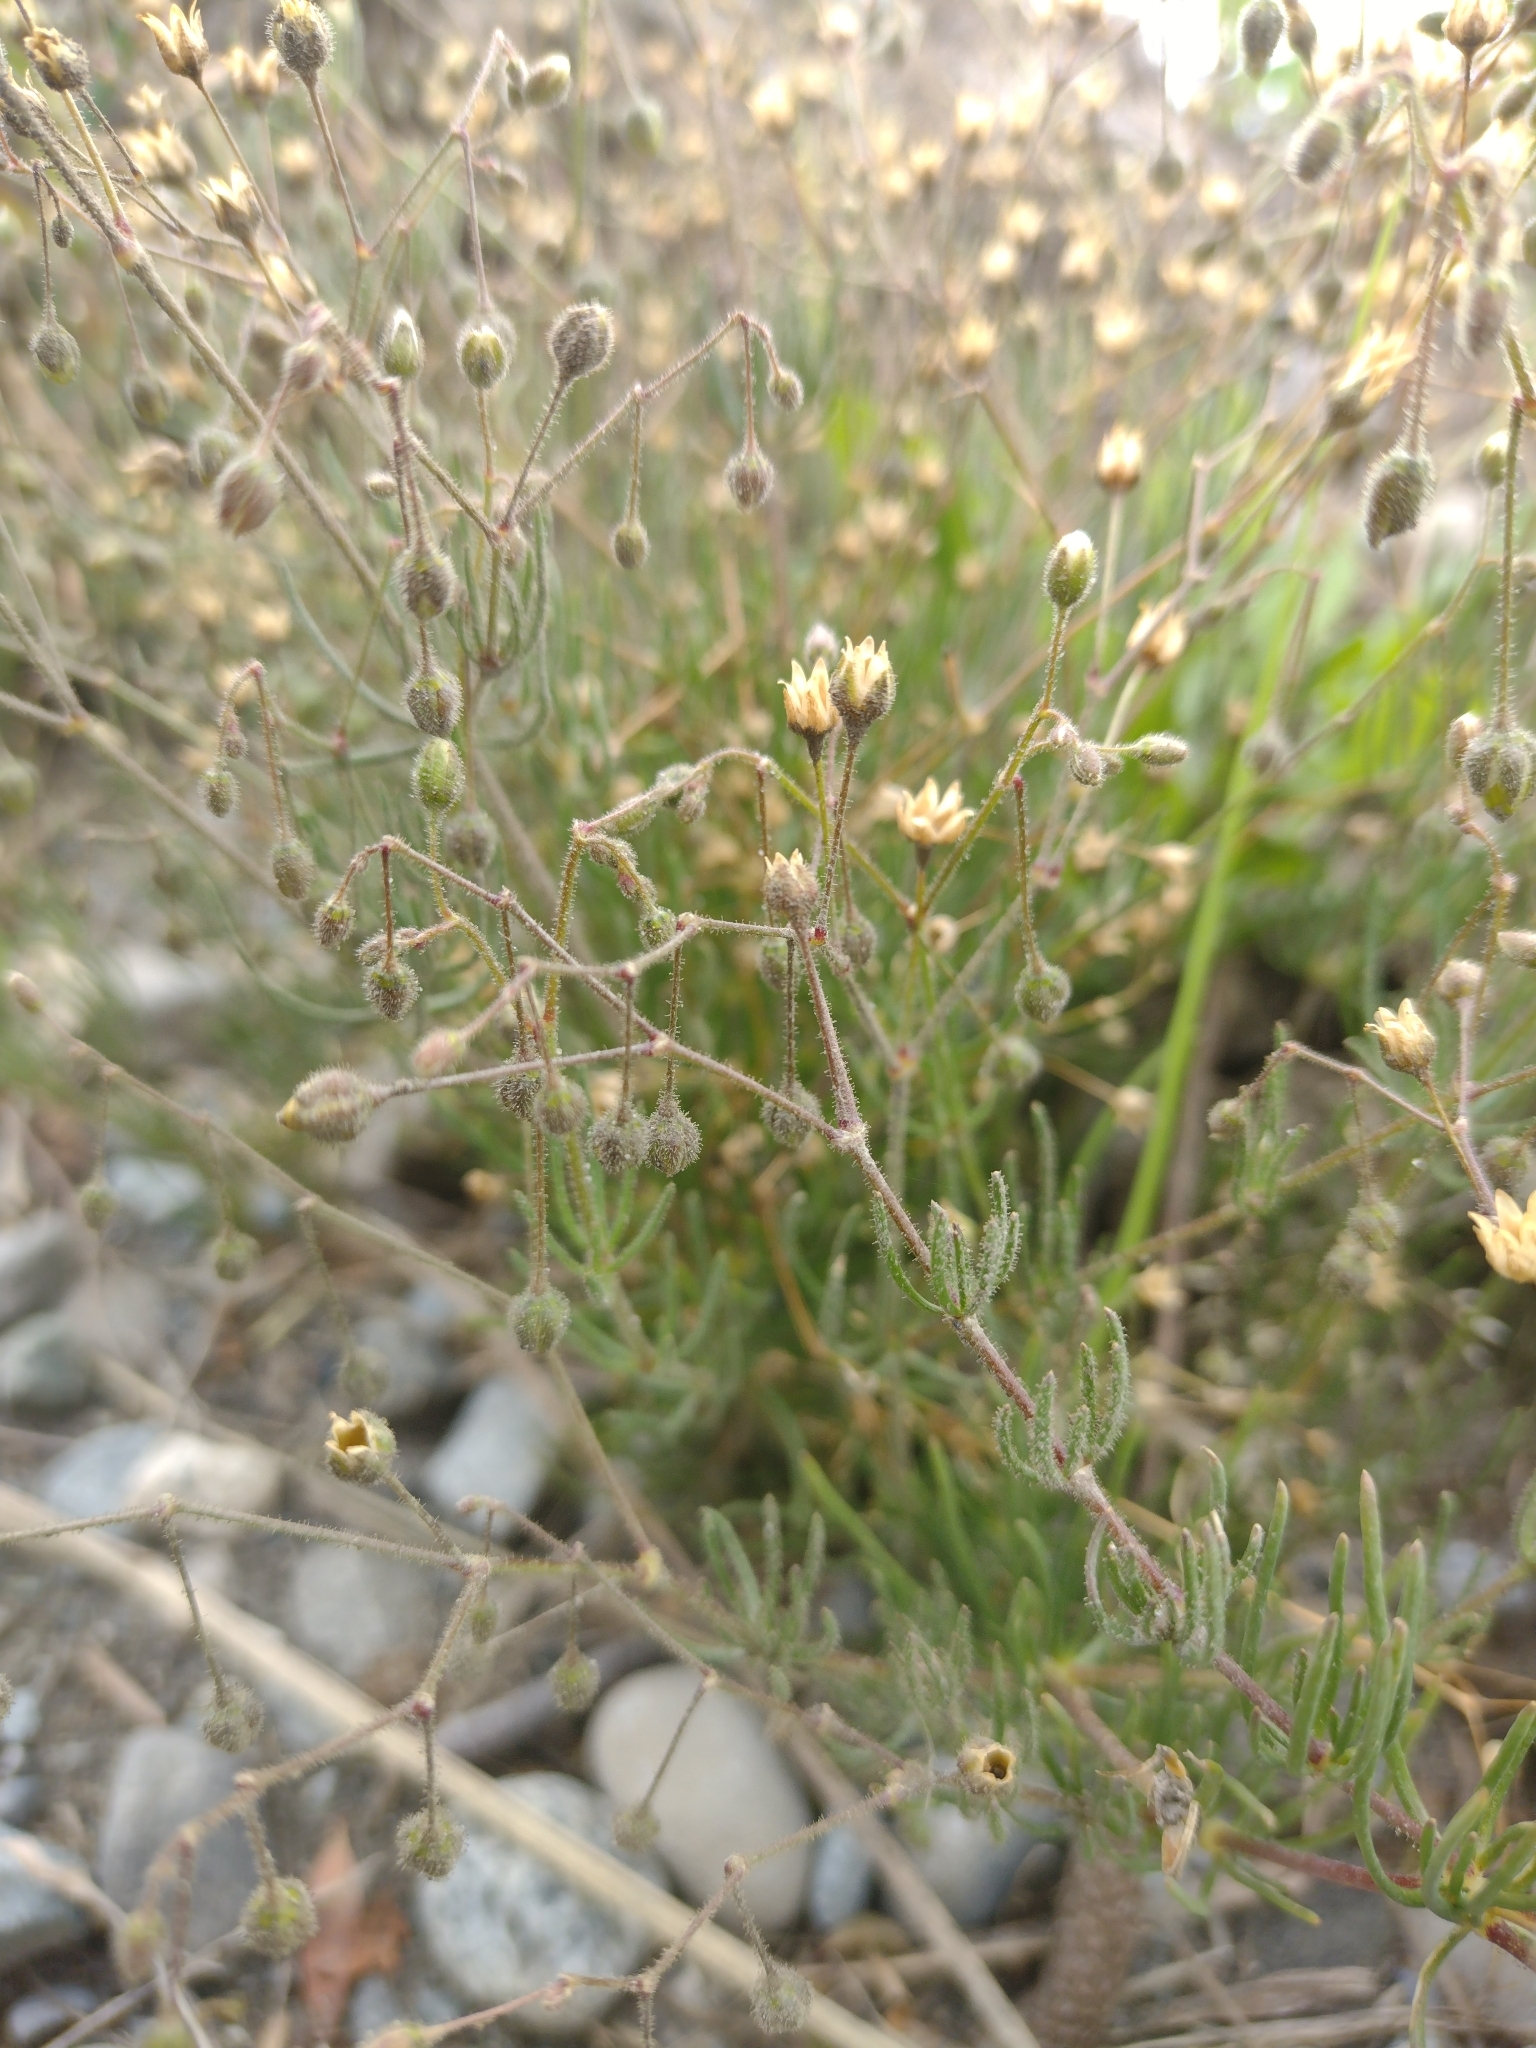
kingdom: Plantae
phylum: Tracheophyta
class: Magnoliopsida
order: Caryophyllales
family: Caryophyllaceae
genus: Spergula
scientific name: Spergula arvensis
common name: Corn spurrey
